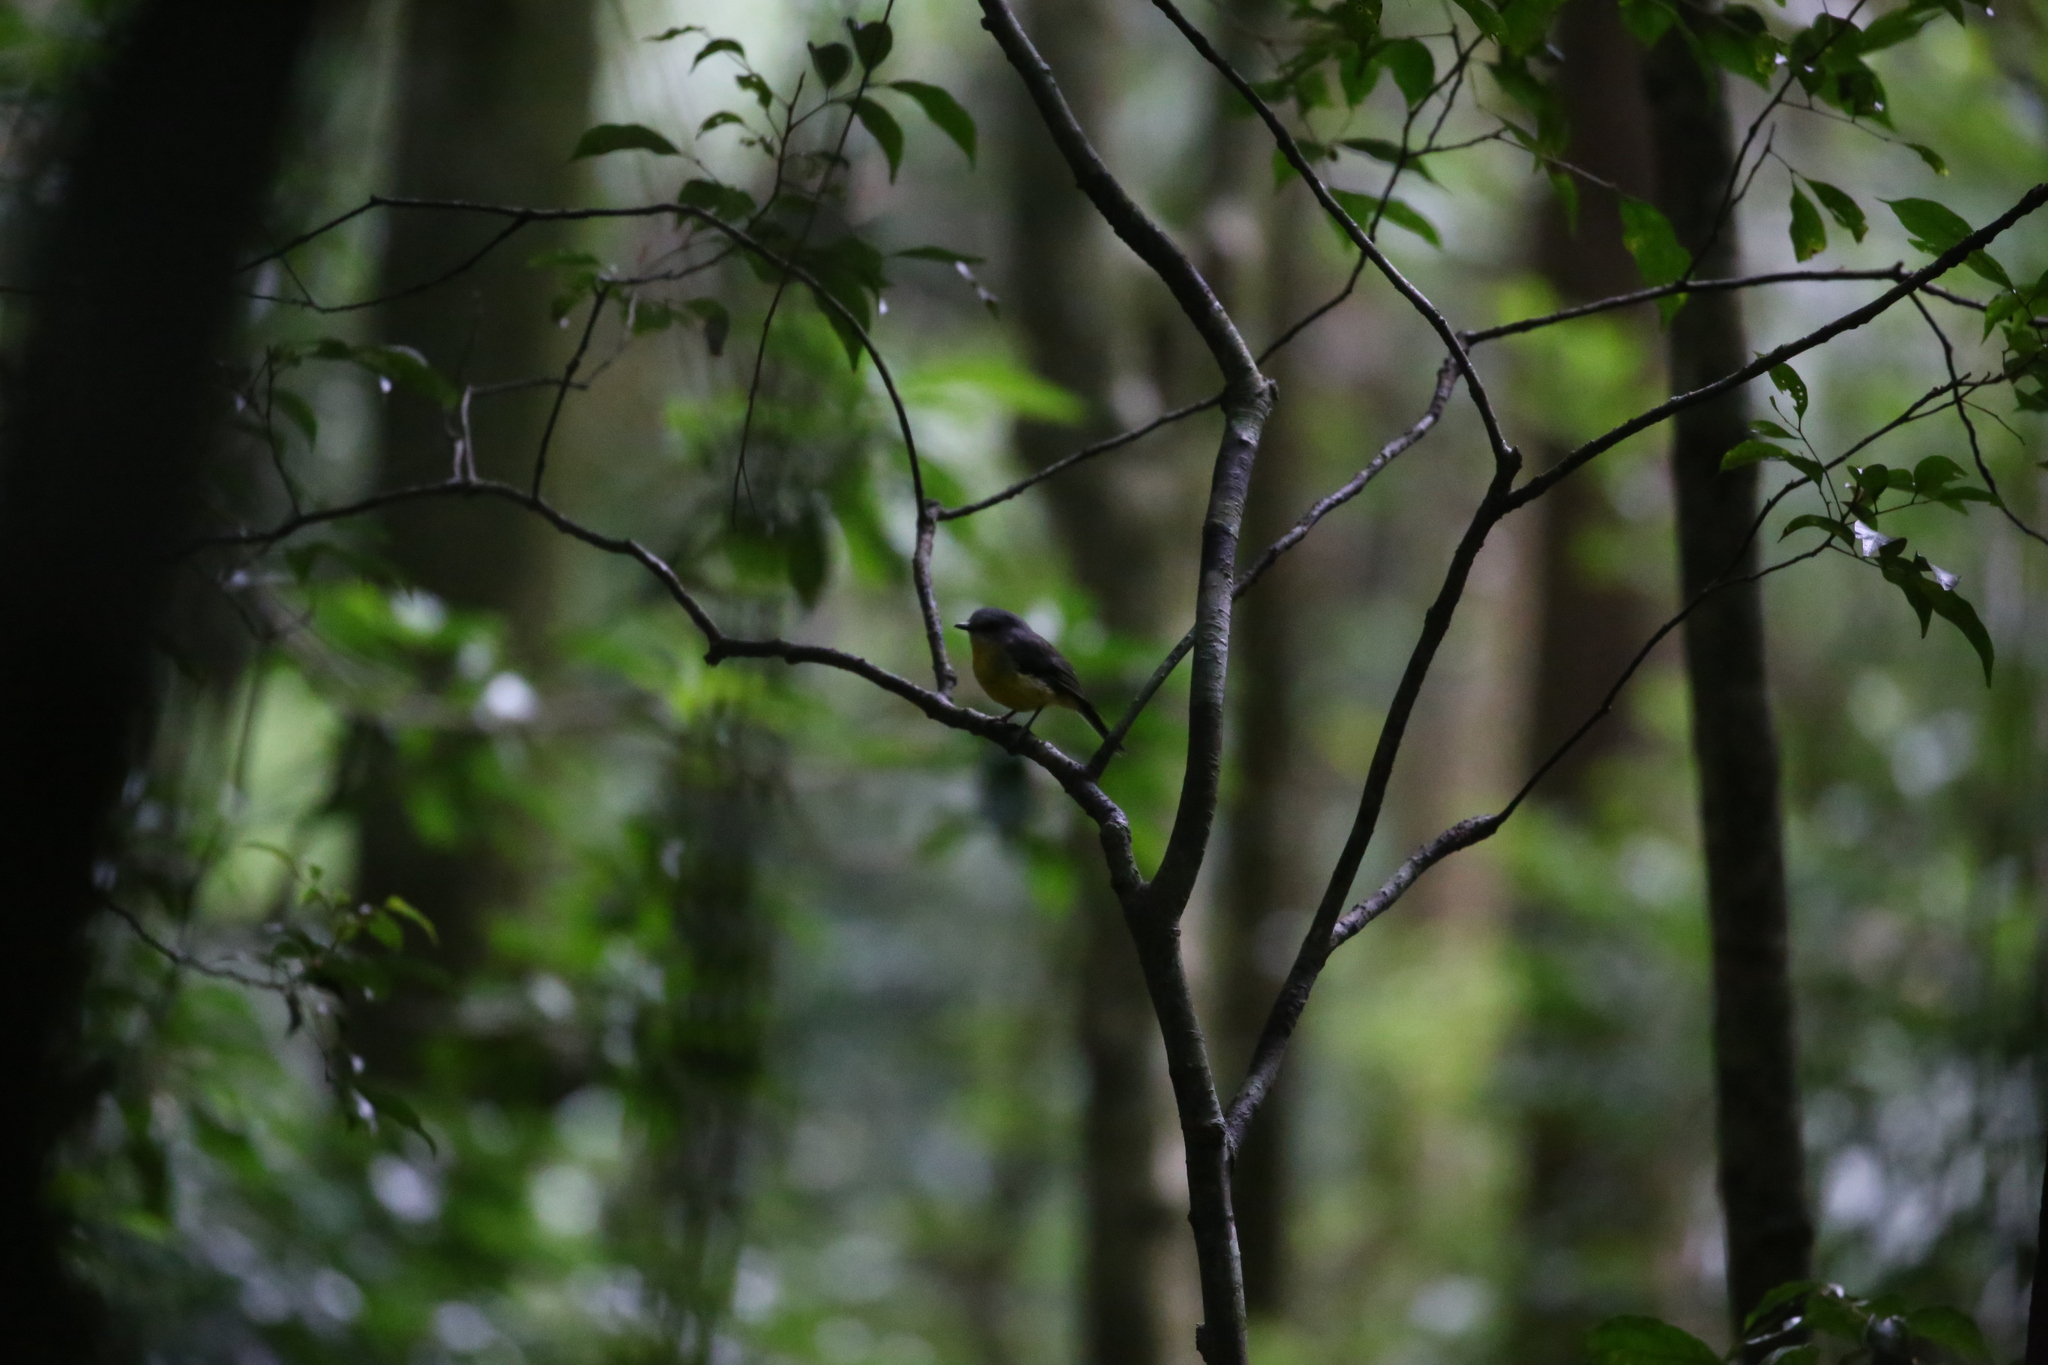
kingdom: Animalia
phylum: Chordata
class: Aves
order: Passeriformes
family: Petroicidae
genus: Eopsaltria
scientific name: Eopsaltria australis
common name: Eastern yellow robin
